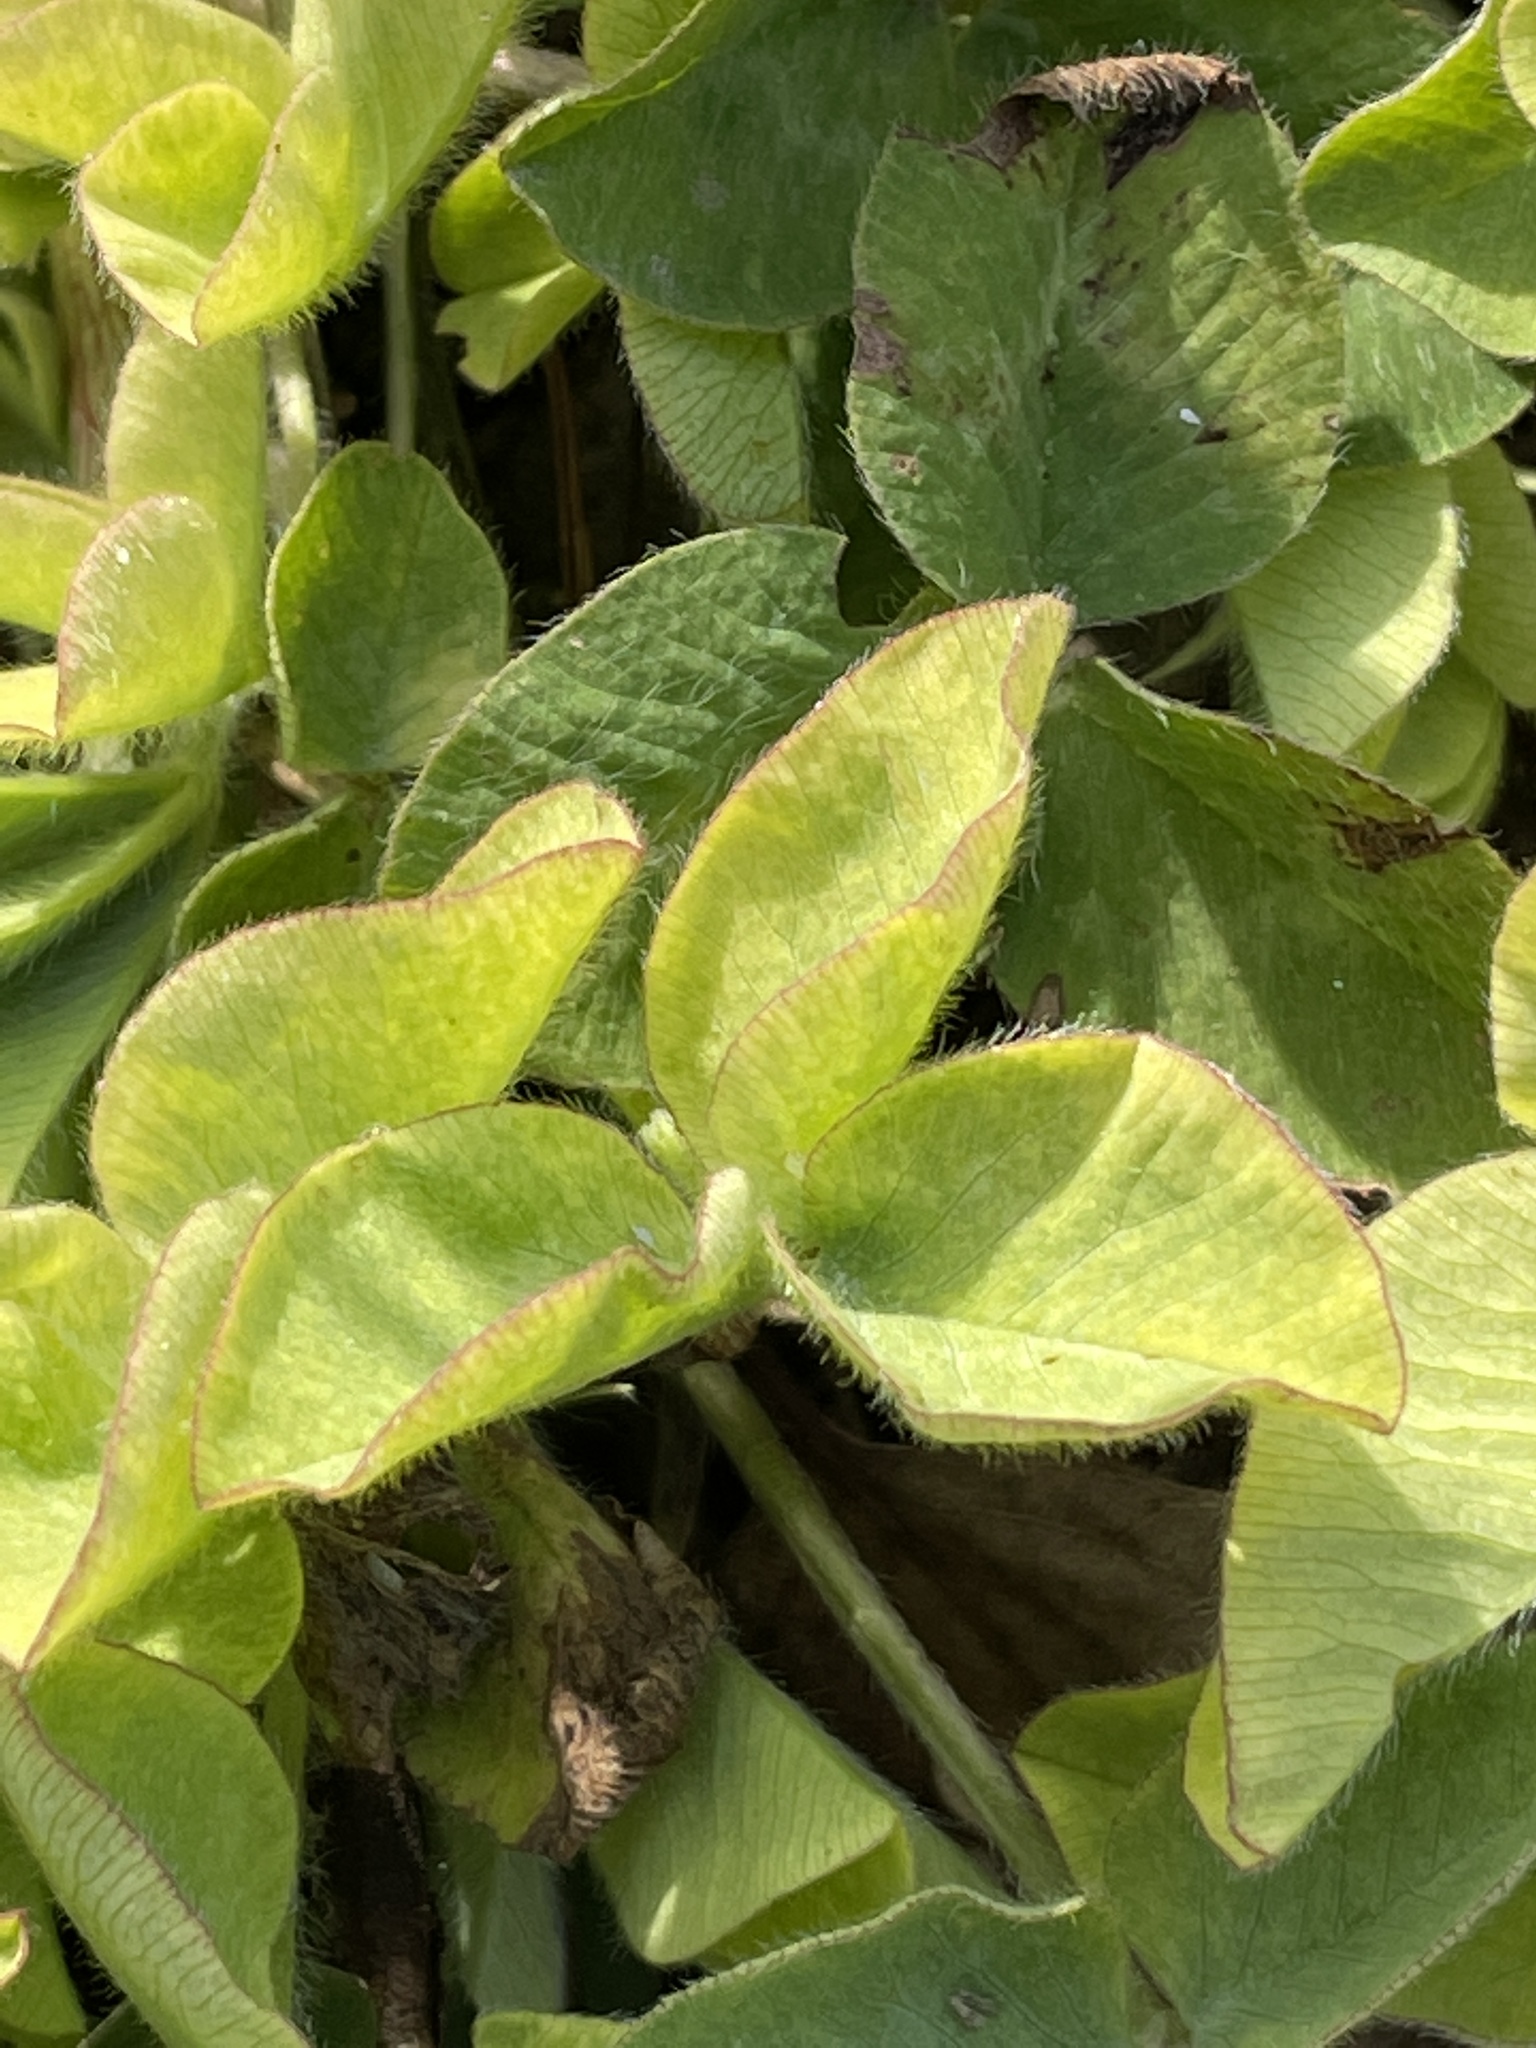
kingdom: Plantae
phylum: Tracheophyta
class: Magnoliopsida
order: Fabales
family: Fabaceae
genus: Trifolium
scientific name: Trifolium pratense
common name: Red clover
